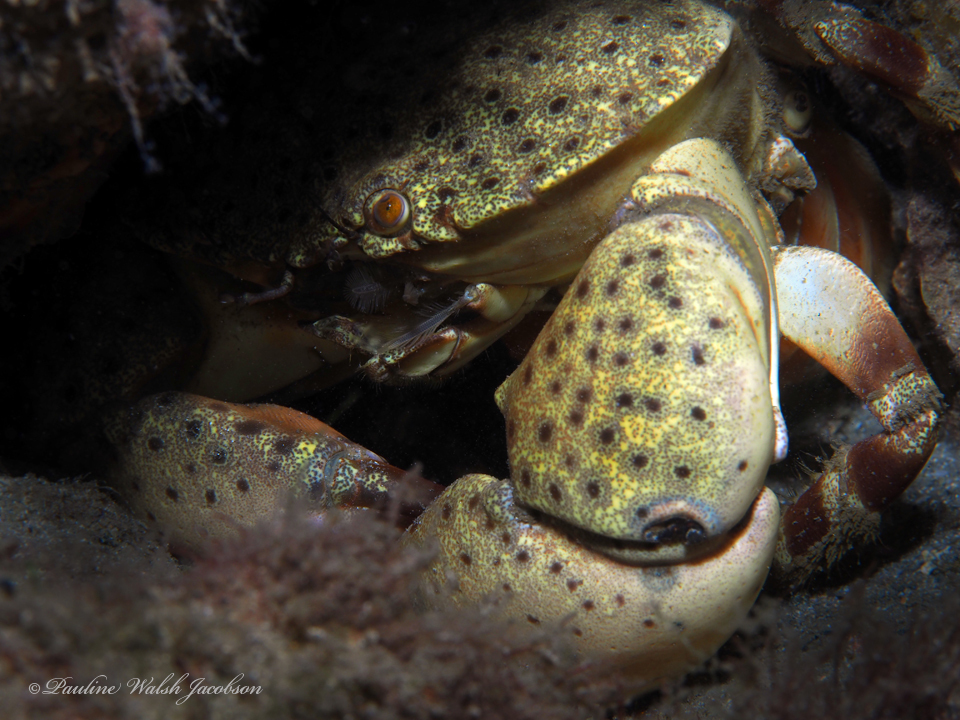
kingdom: Animalia
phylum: Arthropoda
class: Malacostraca
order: Decapoda
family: Menippidae
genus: Menippe
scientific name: Menippe mercenaria
